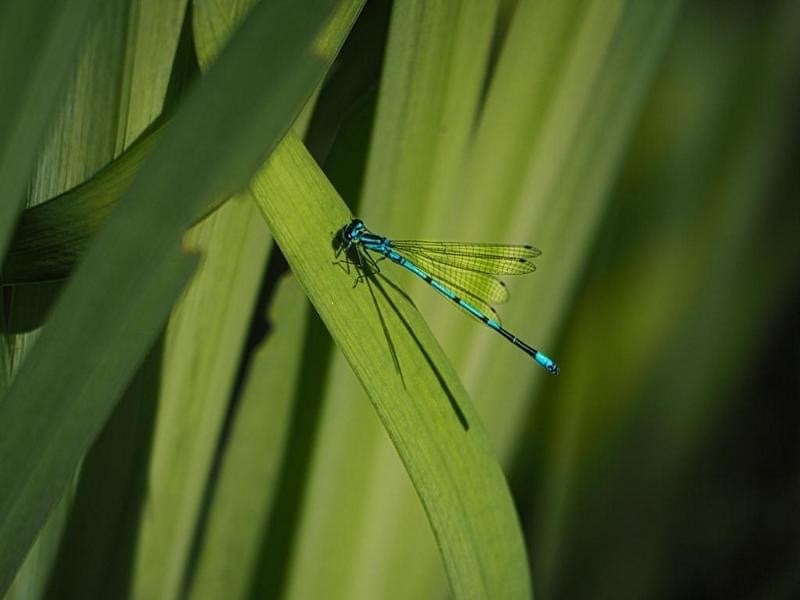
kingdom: Animalia
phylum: Arthropoda
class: Insecta
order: Odonata
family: Coenagrionidae
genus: Coenagrion
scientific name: Coenagrion puella
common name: Azure damselfly
